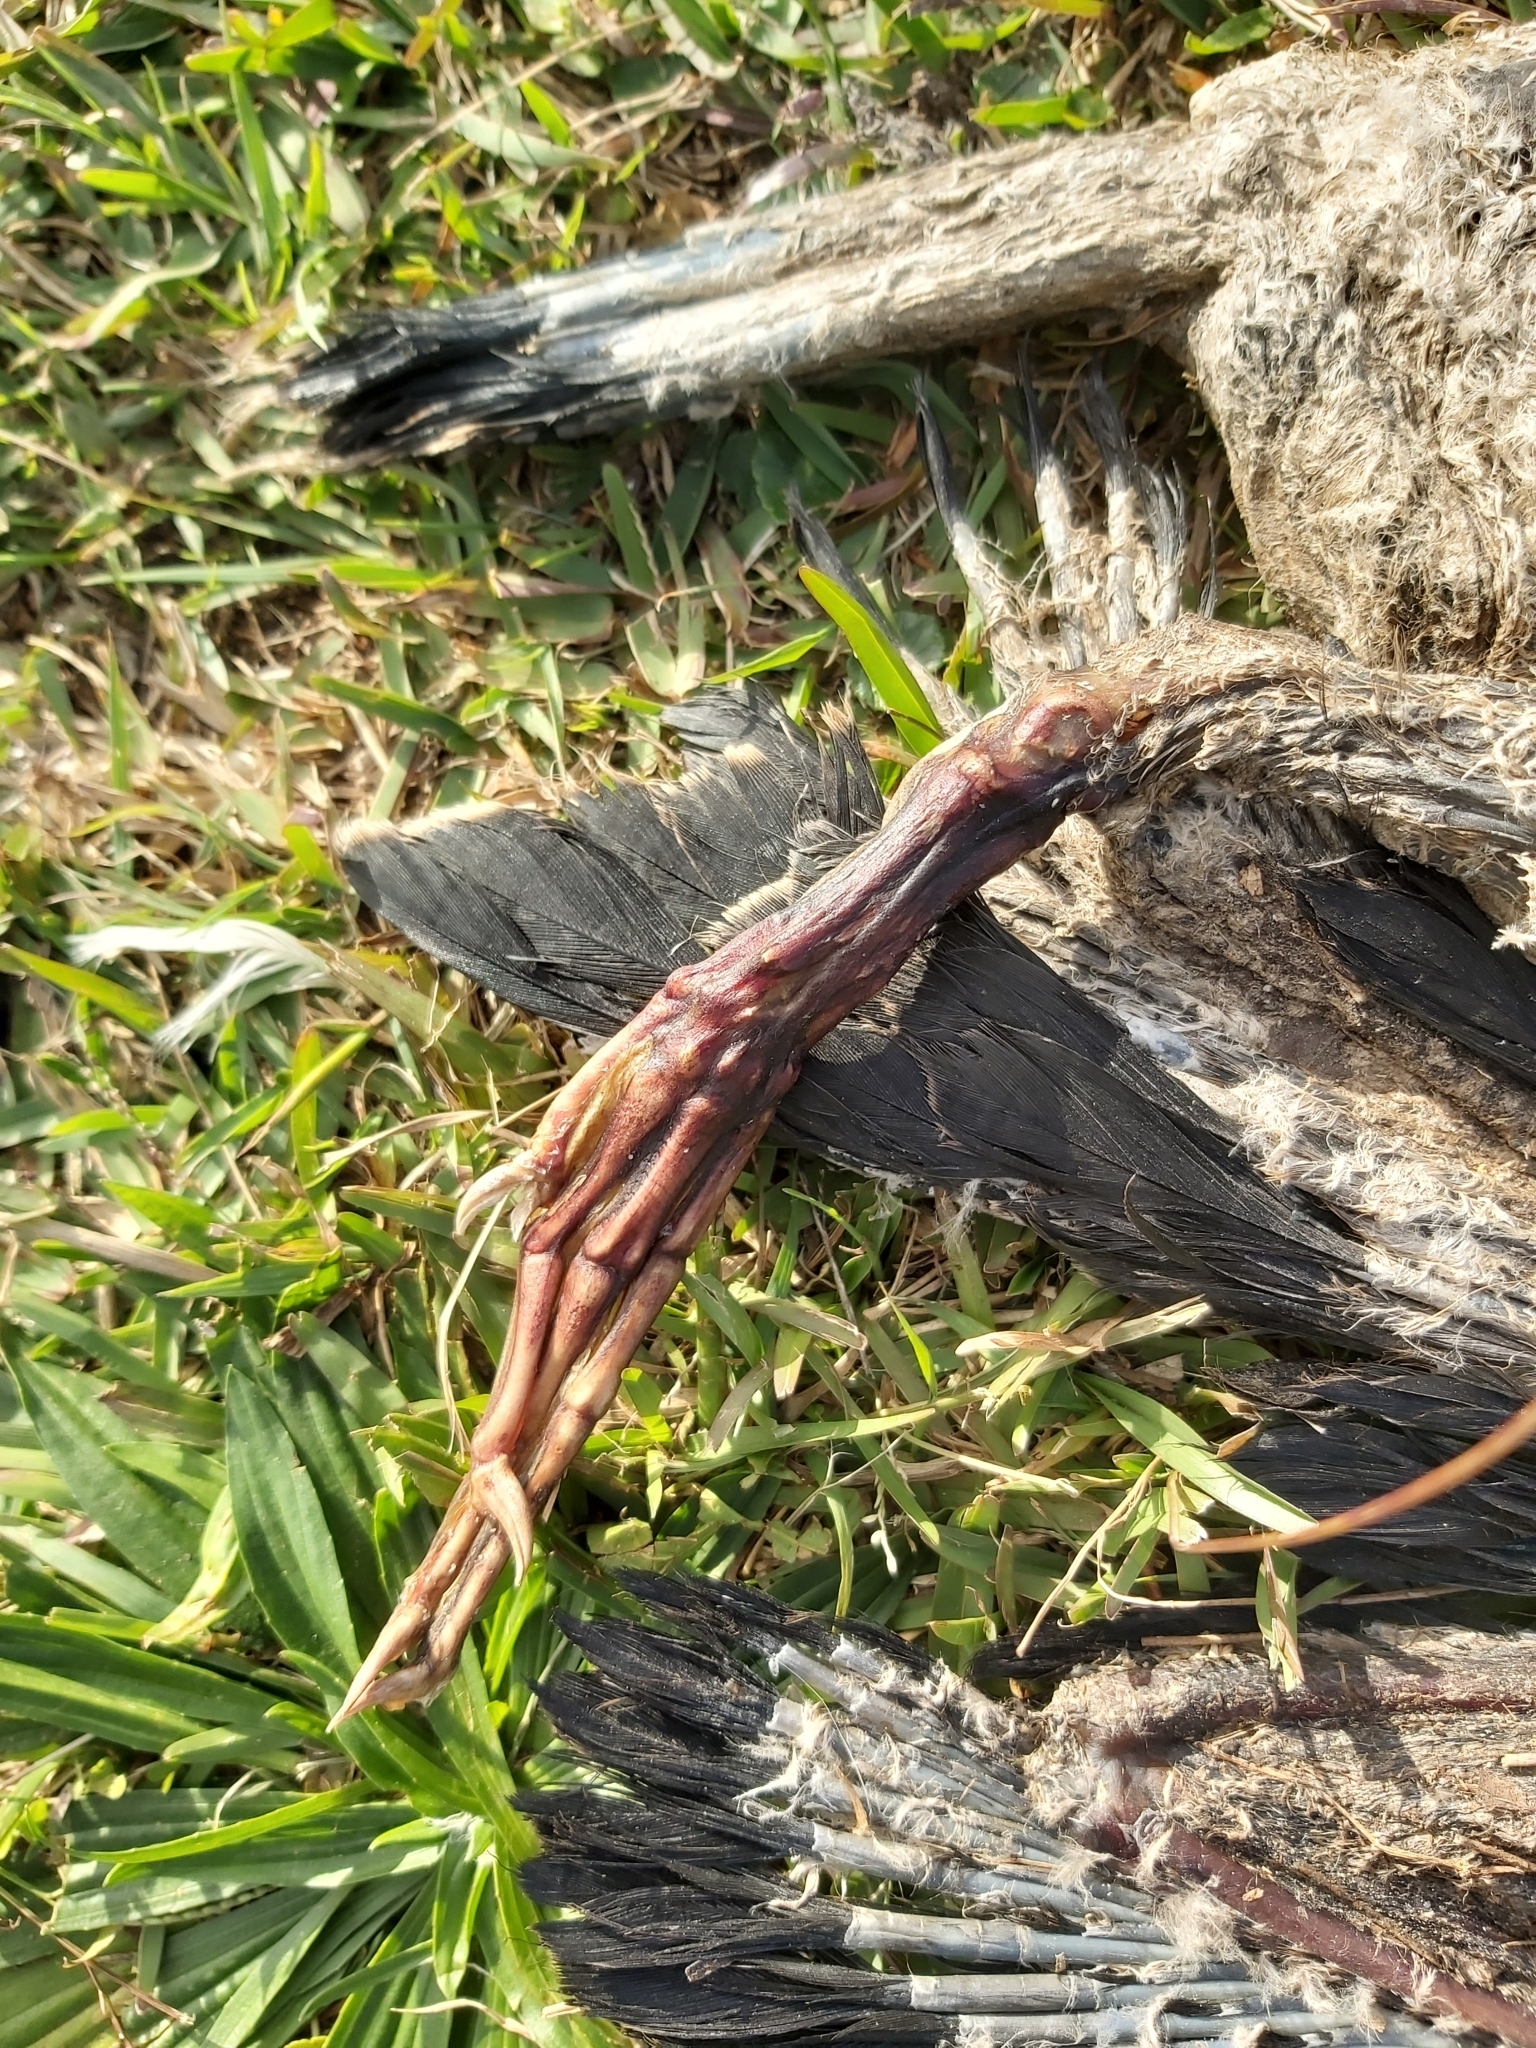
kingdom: Animalia
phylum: Chordata
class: Aves
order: Suliformes
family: Anhingidae
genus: Anhinga
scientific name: Anhinga novaehollandiae
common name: Australasian darter
